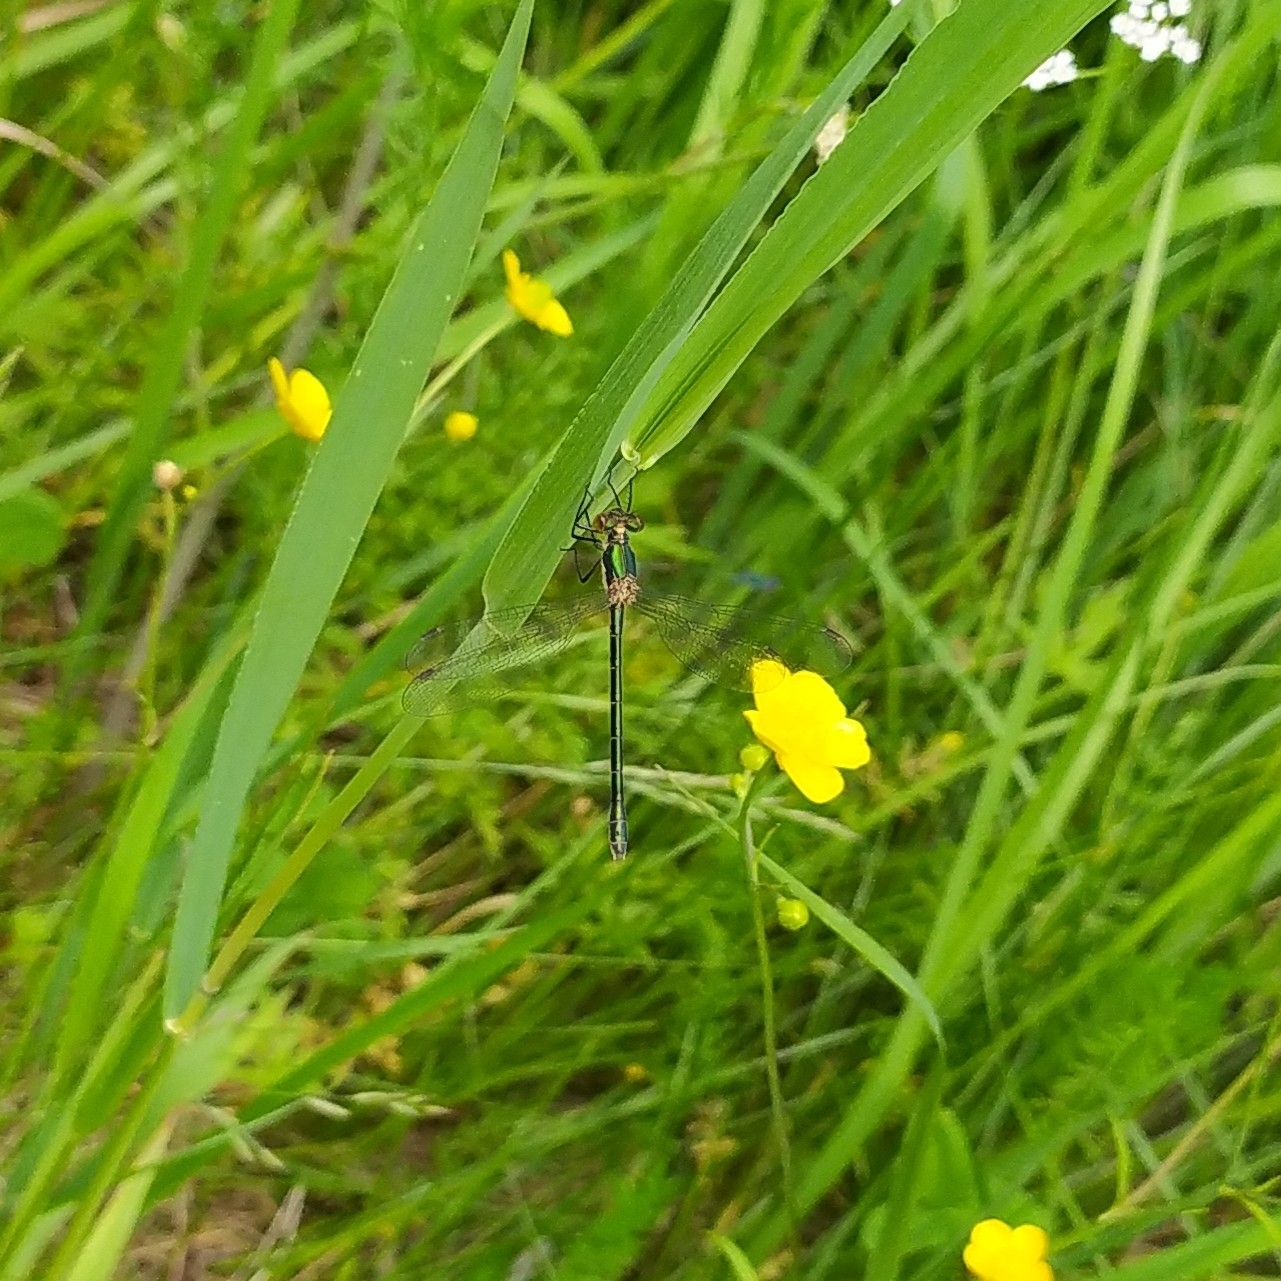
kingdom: Animalia
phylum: Arthropoda
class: Insecta
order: Odonata
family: Lestidae
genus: Lestes
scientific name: Lestes dryas
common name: Scarce emerald damselfly
